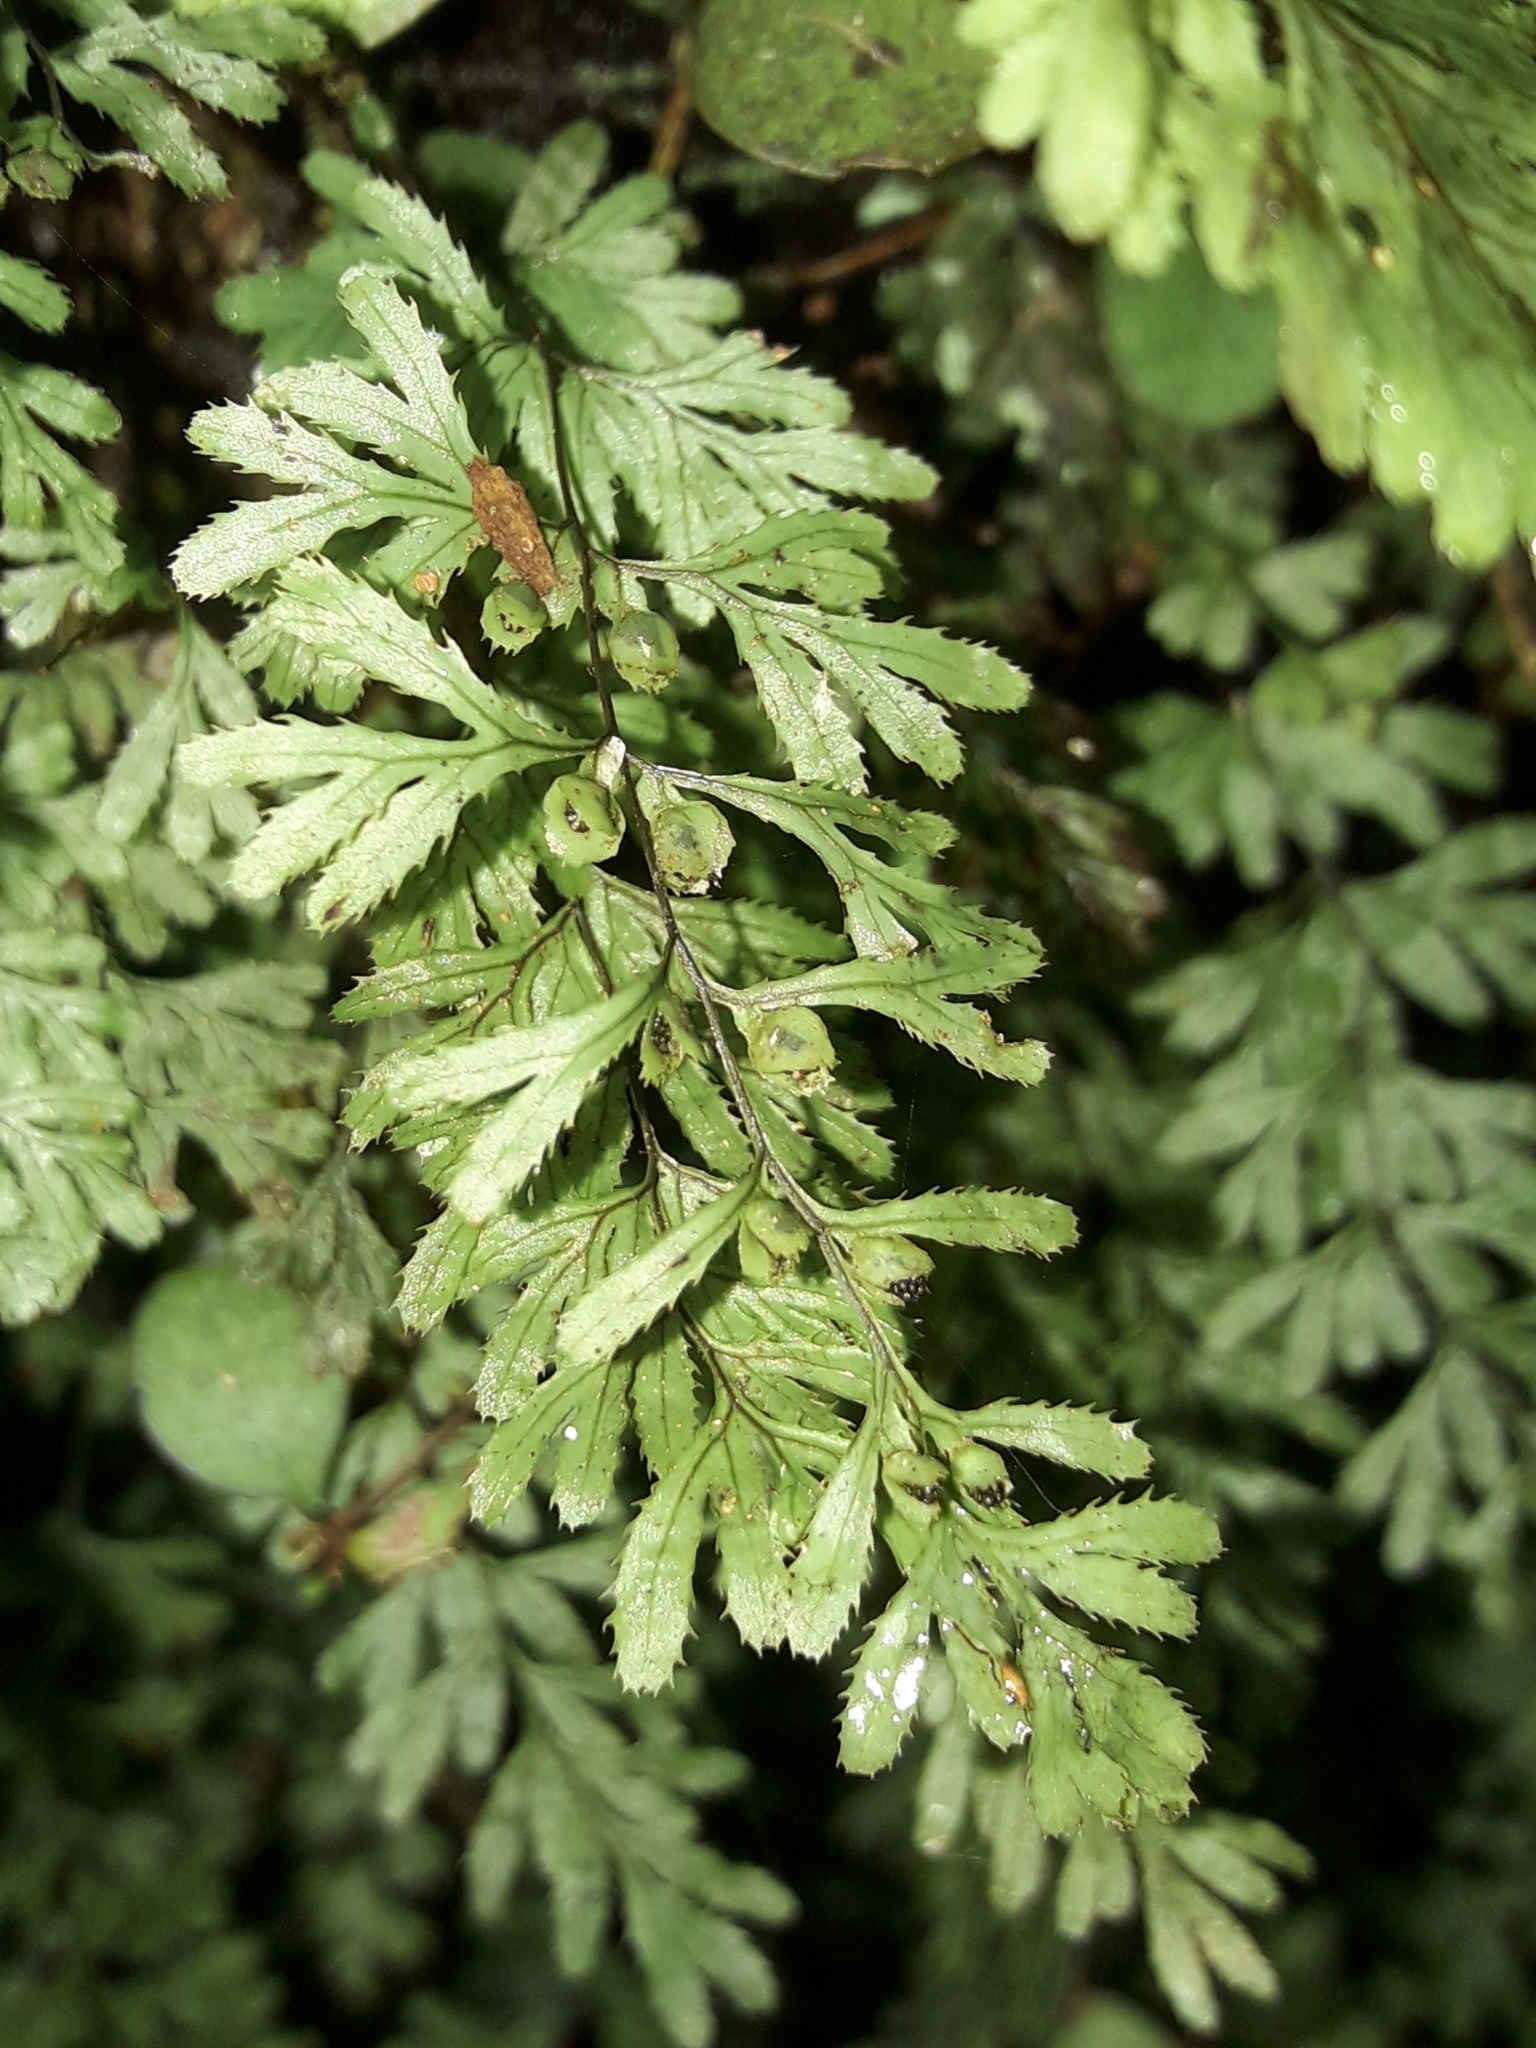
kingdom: Plantae
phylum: Tracheophyta
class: Polypodiopsida
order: Hymenophyllales
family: Hymenophyllaceae
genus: Hymenophyllum
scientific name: Hymenophyllum revolutum
